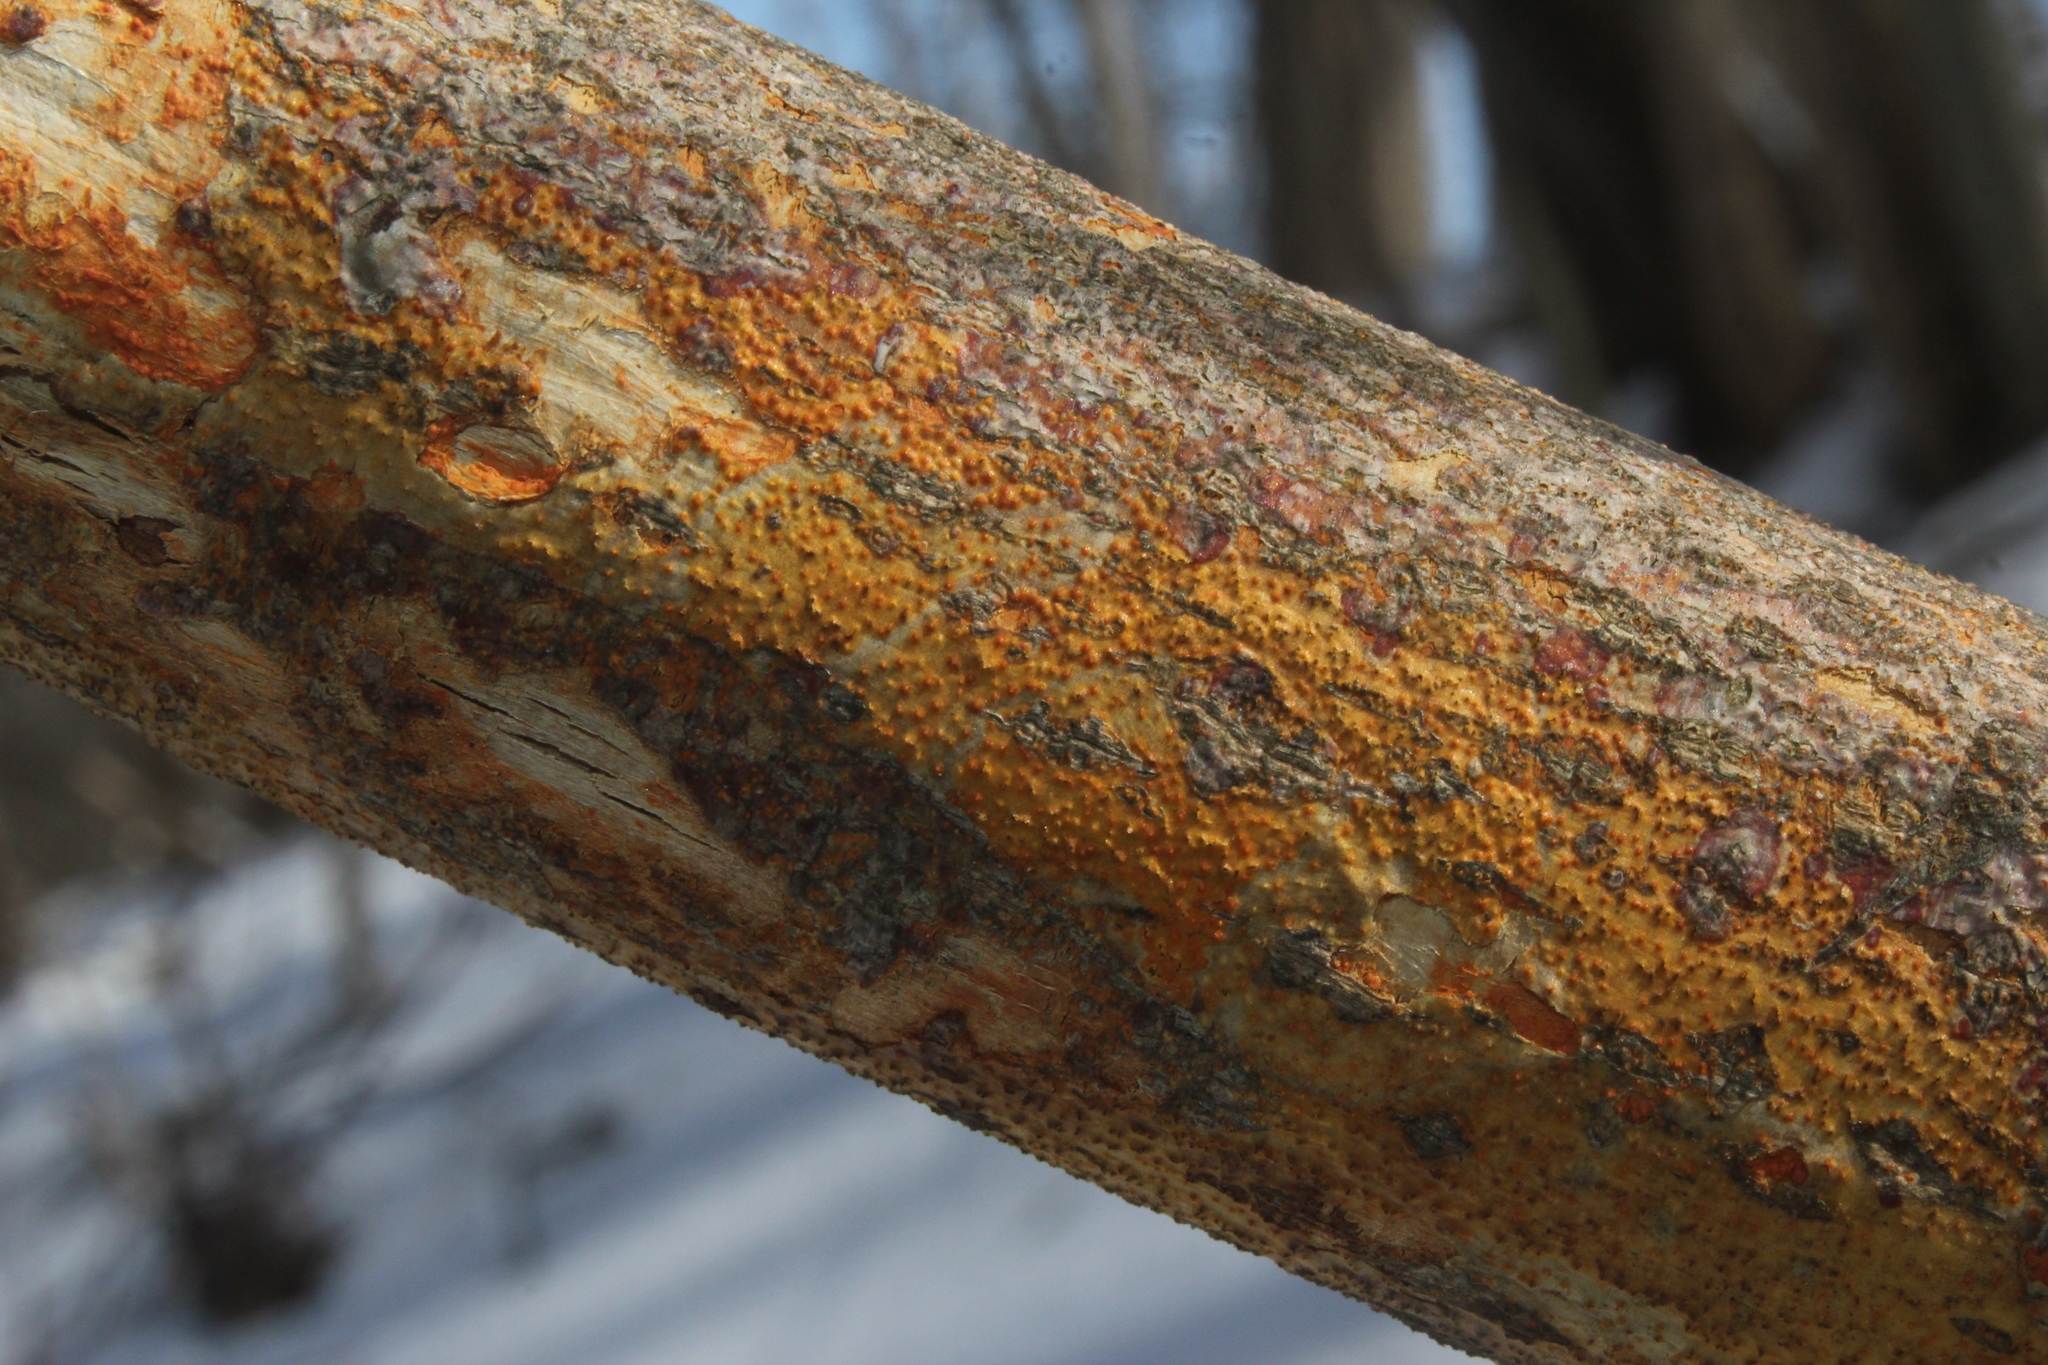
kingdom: Fungi
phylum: Ascomycota
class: Sordariomycetes
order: Diaporthales
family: Cryphonectriaceae
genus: Aurantioporthe
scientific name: Aurantioporthe corni
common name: Dogwood golden canker
